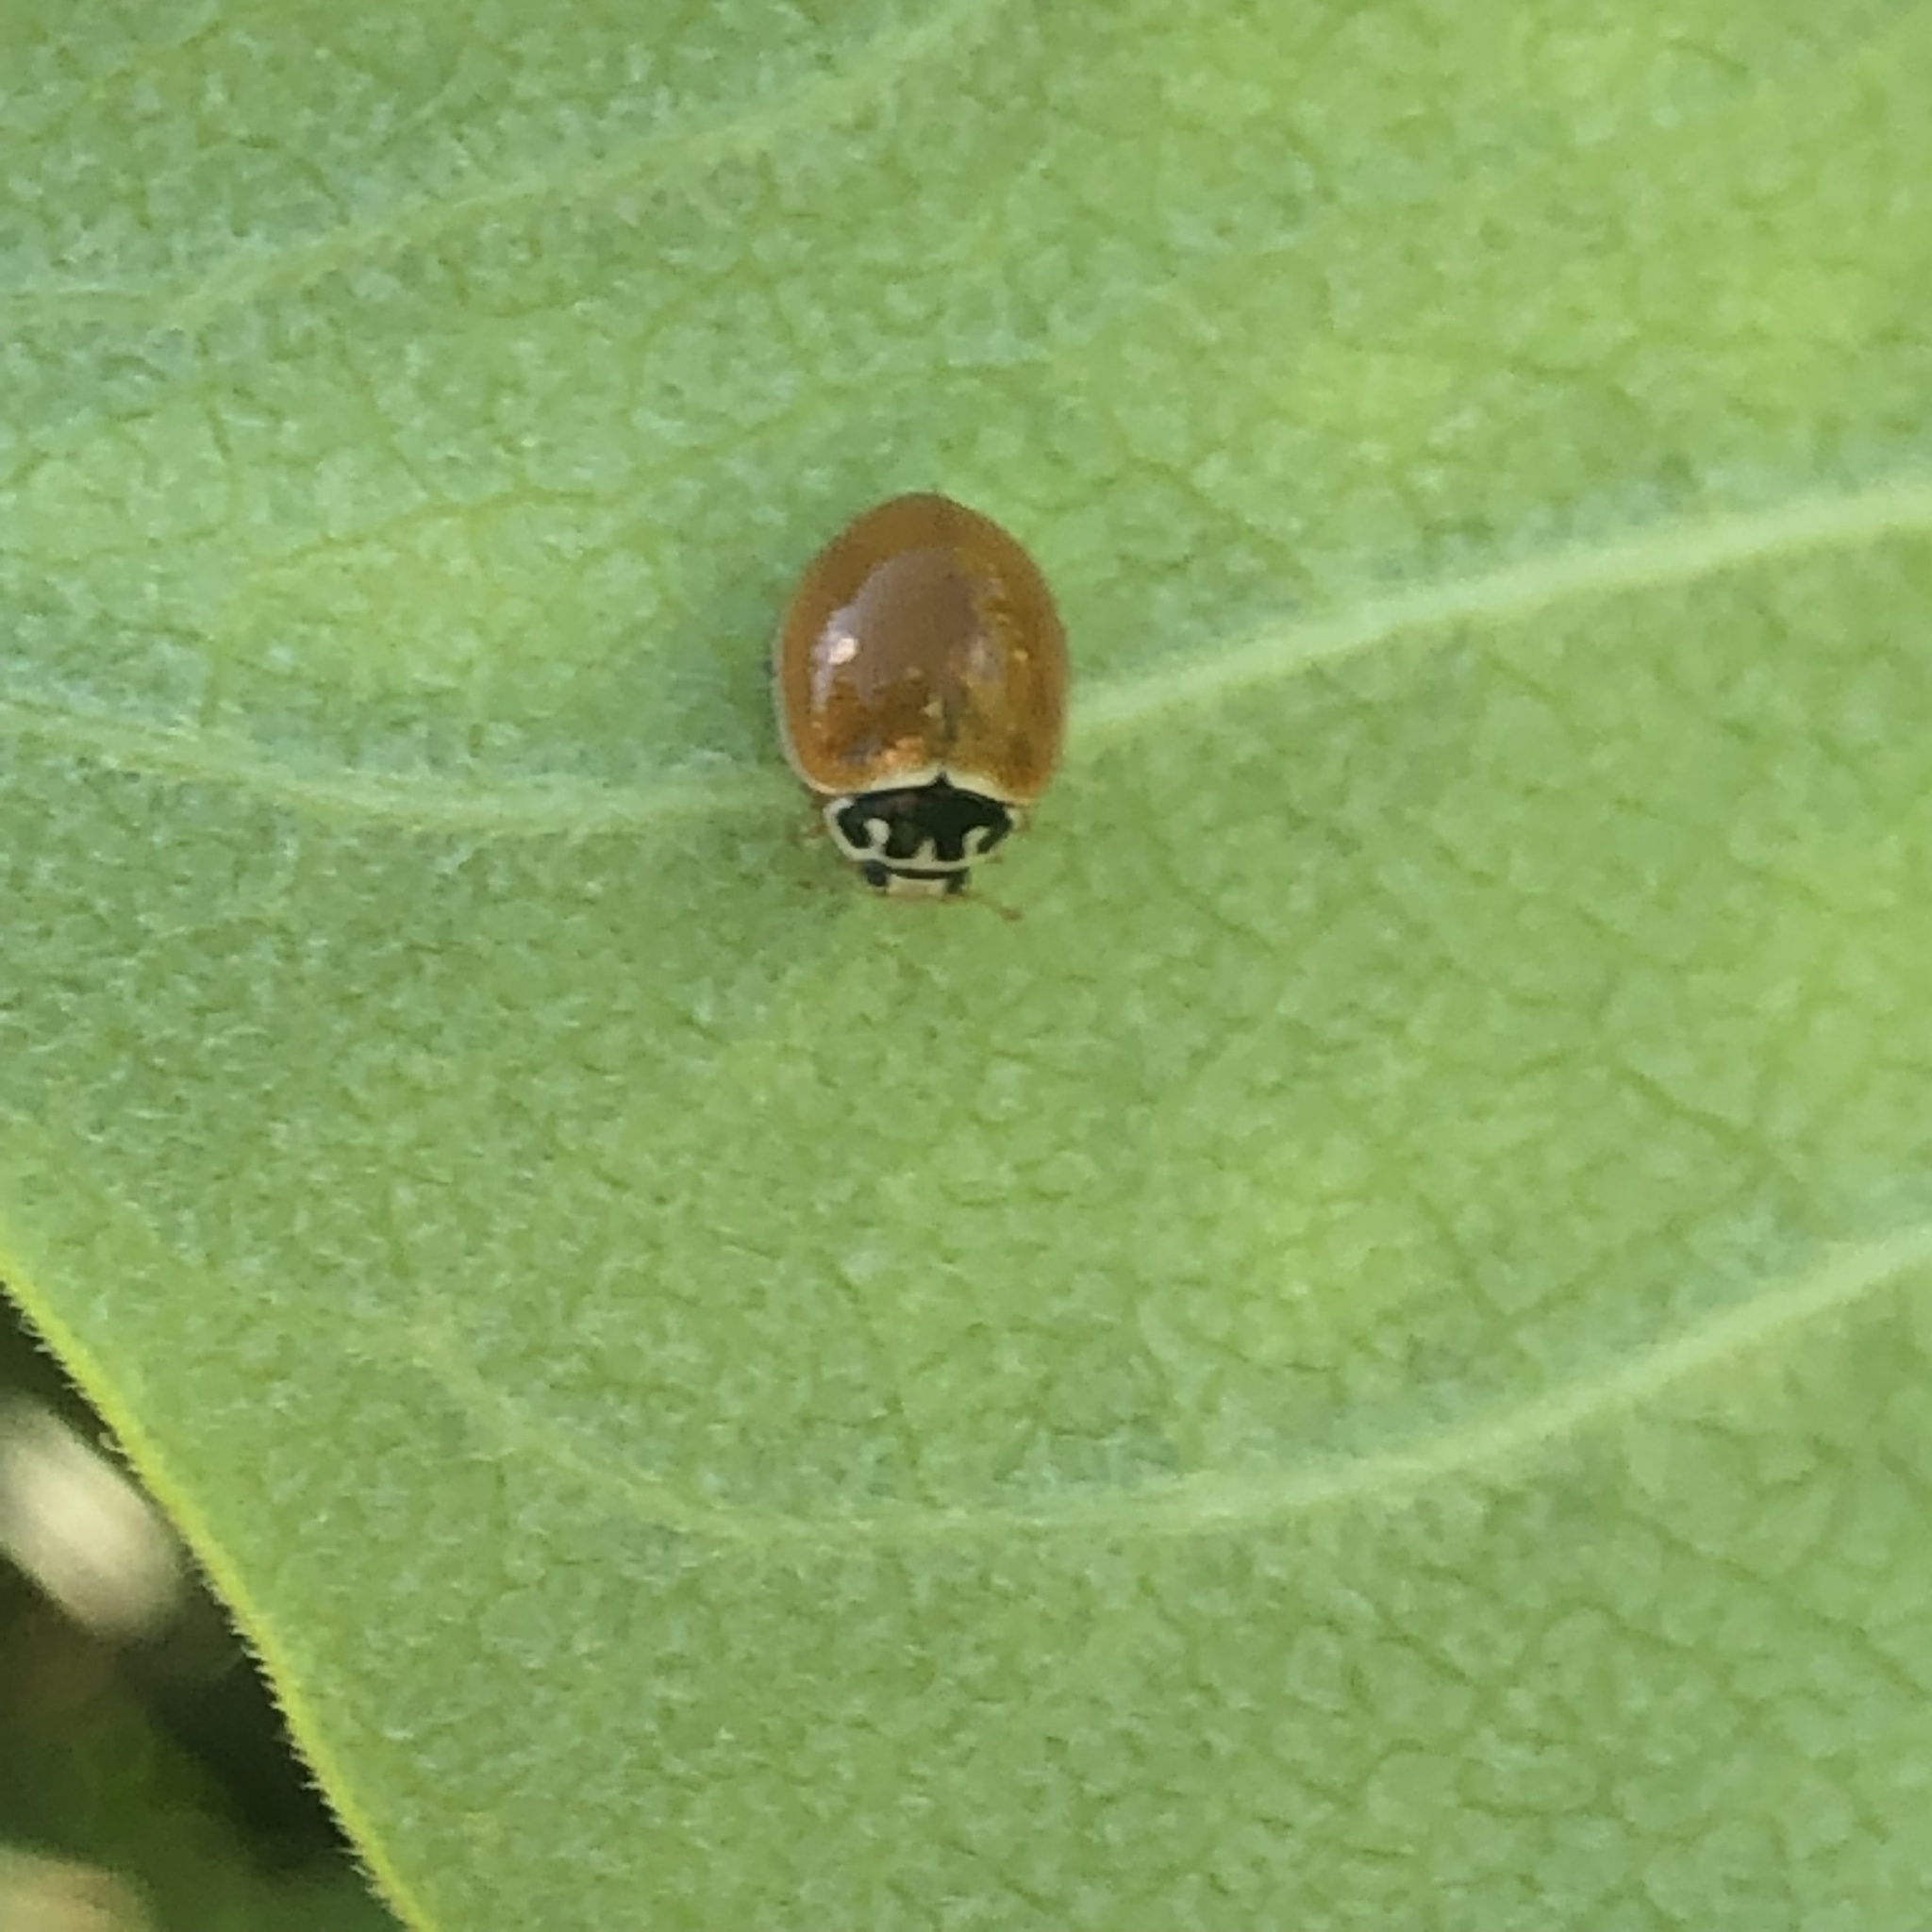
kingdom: Animalia
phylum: Arthropoda
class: Insecta
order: Coleoptera
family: Coccinellidae
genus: Cycloneda
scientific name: Cycloneda munda
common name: Polished lady beetle
